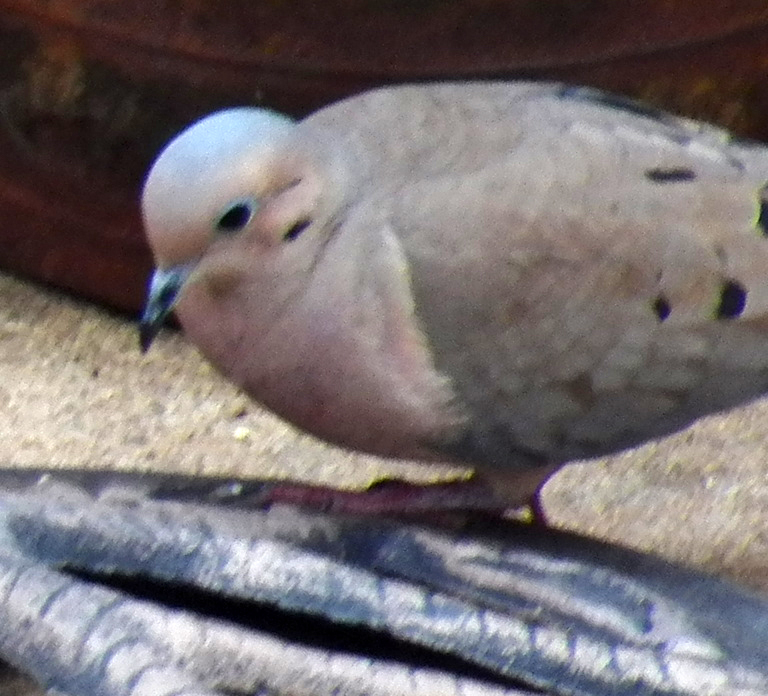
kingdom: Animalia
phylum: Chordata
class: Aves
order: Columbiformes
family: Columbidae
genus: Zenaida
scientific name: Zenaida macroura
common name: Mourning dove
